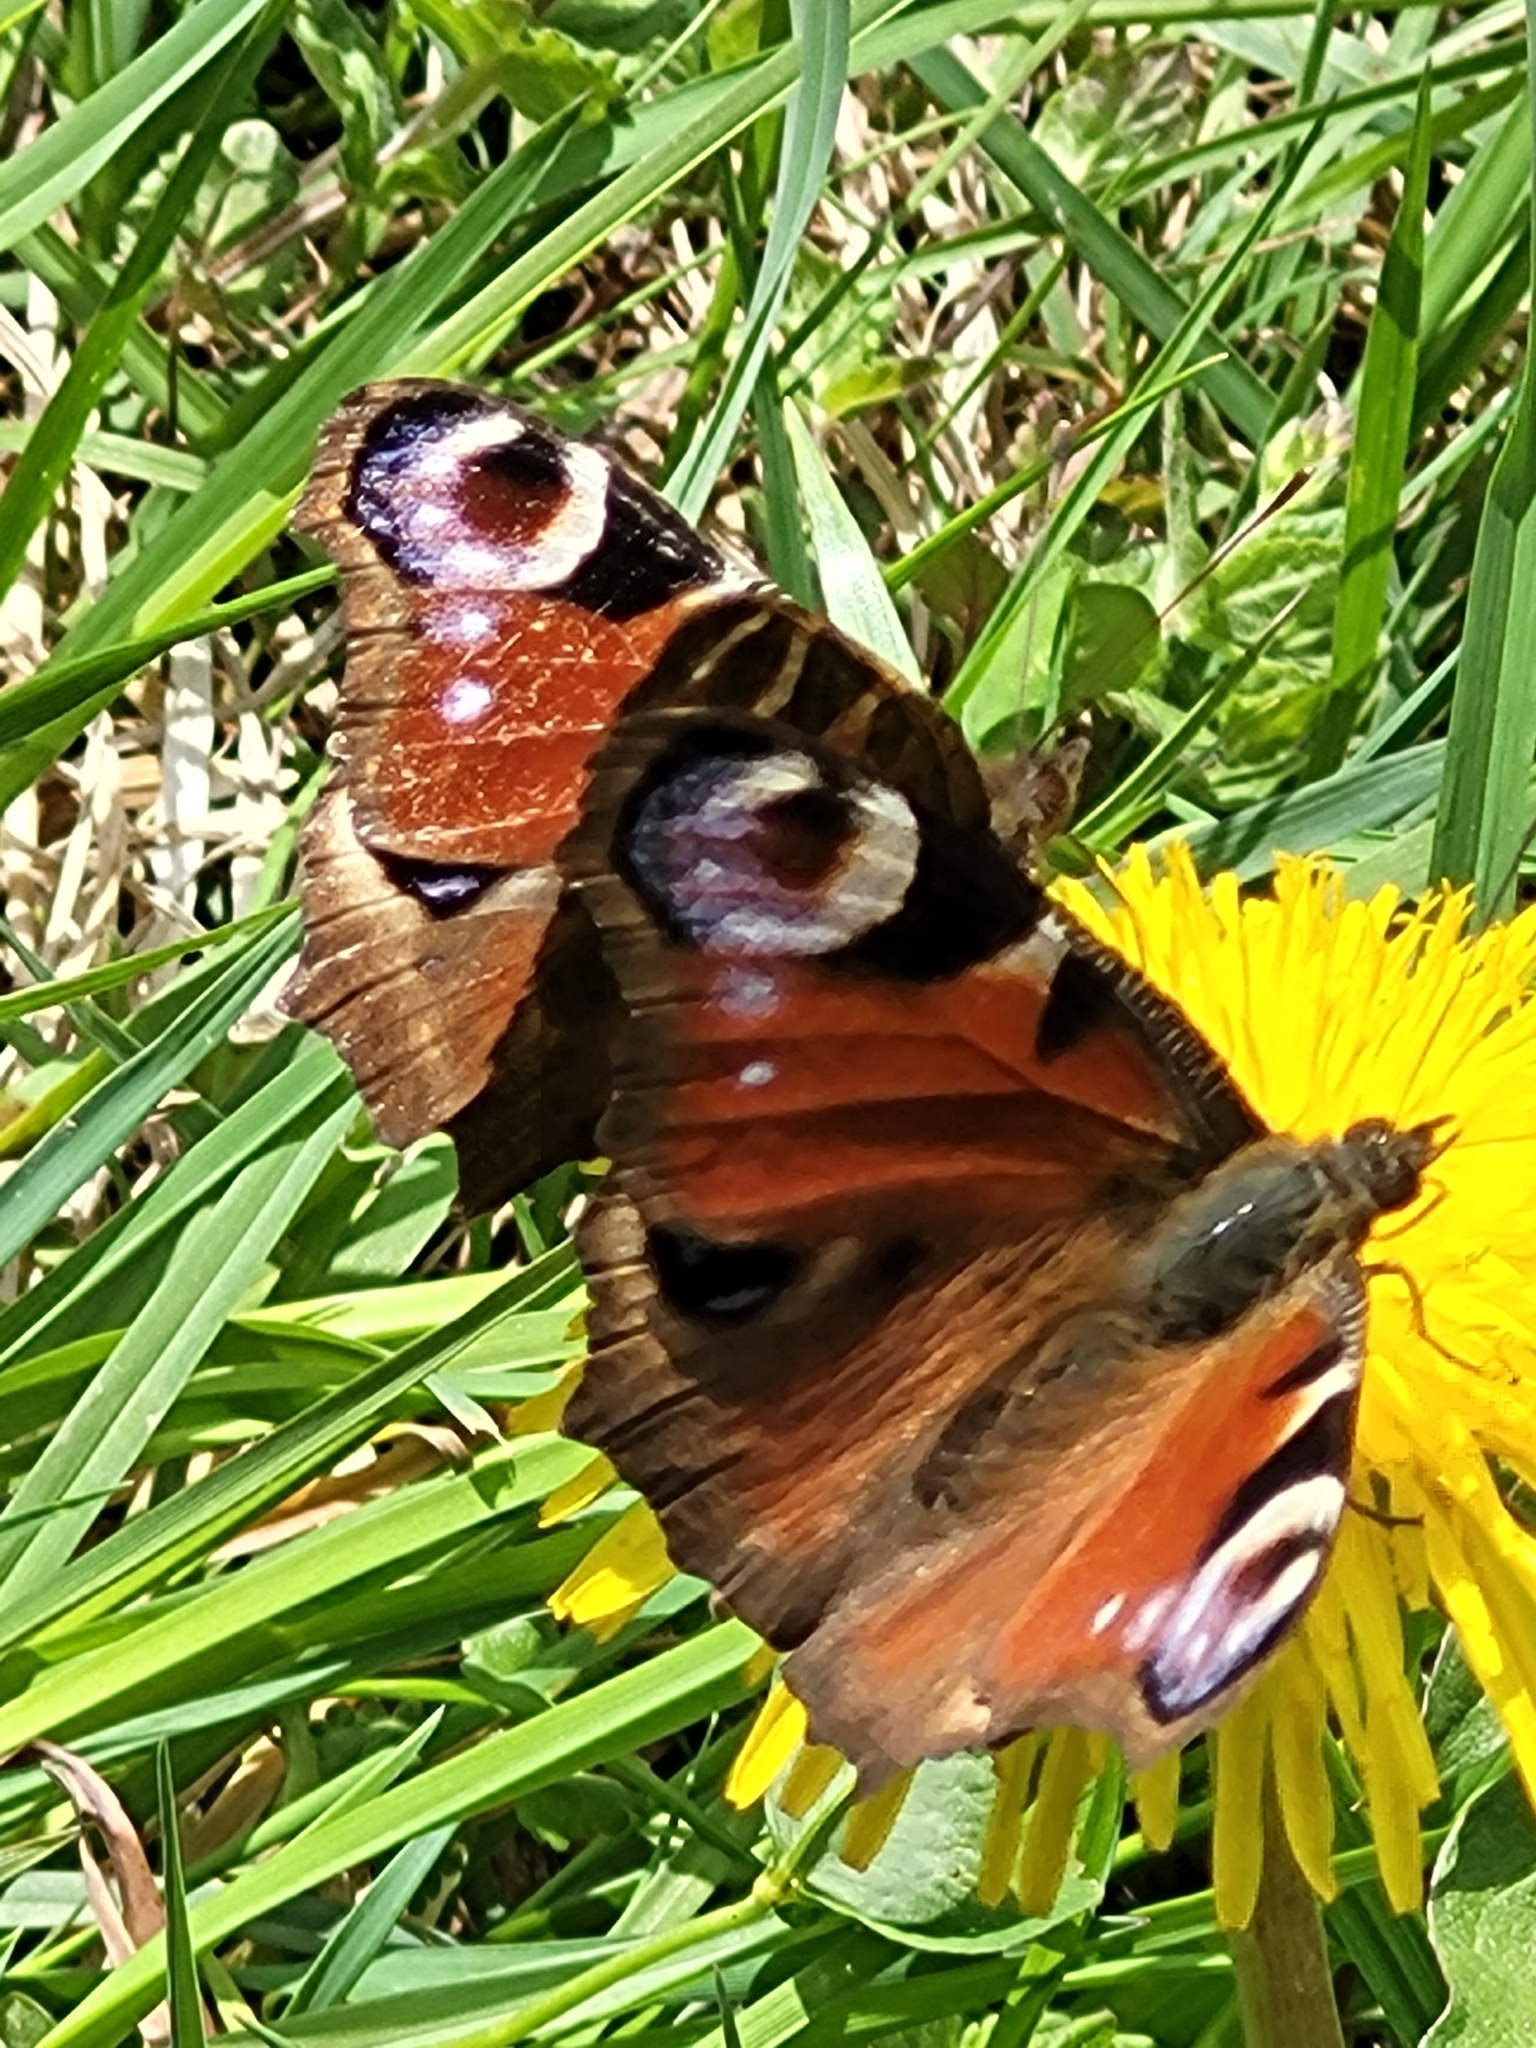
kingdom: Animalia
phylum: Arthropoda
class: Insecta
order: Lepidoptera
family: Nymphalidae
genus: Aglais
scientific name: Aglais io
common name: Peacock
